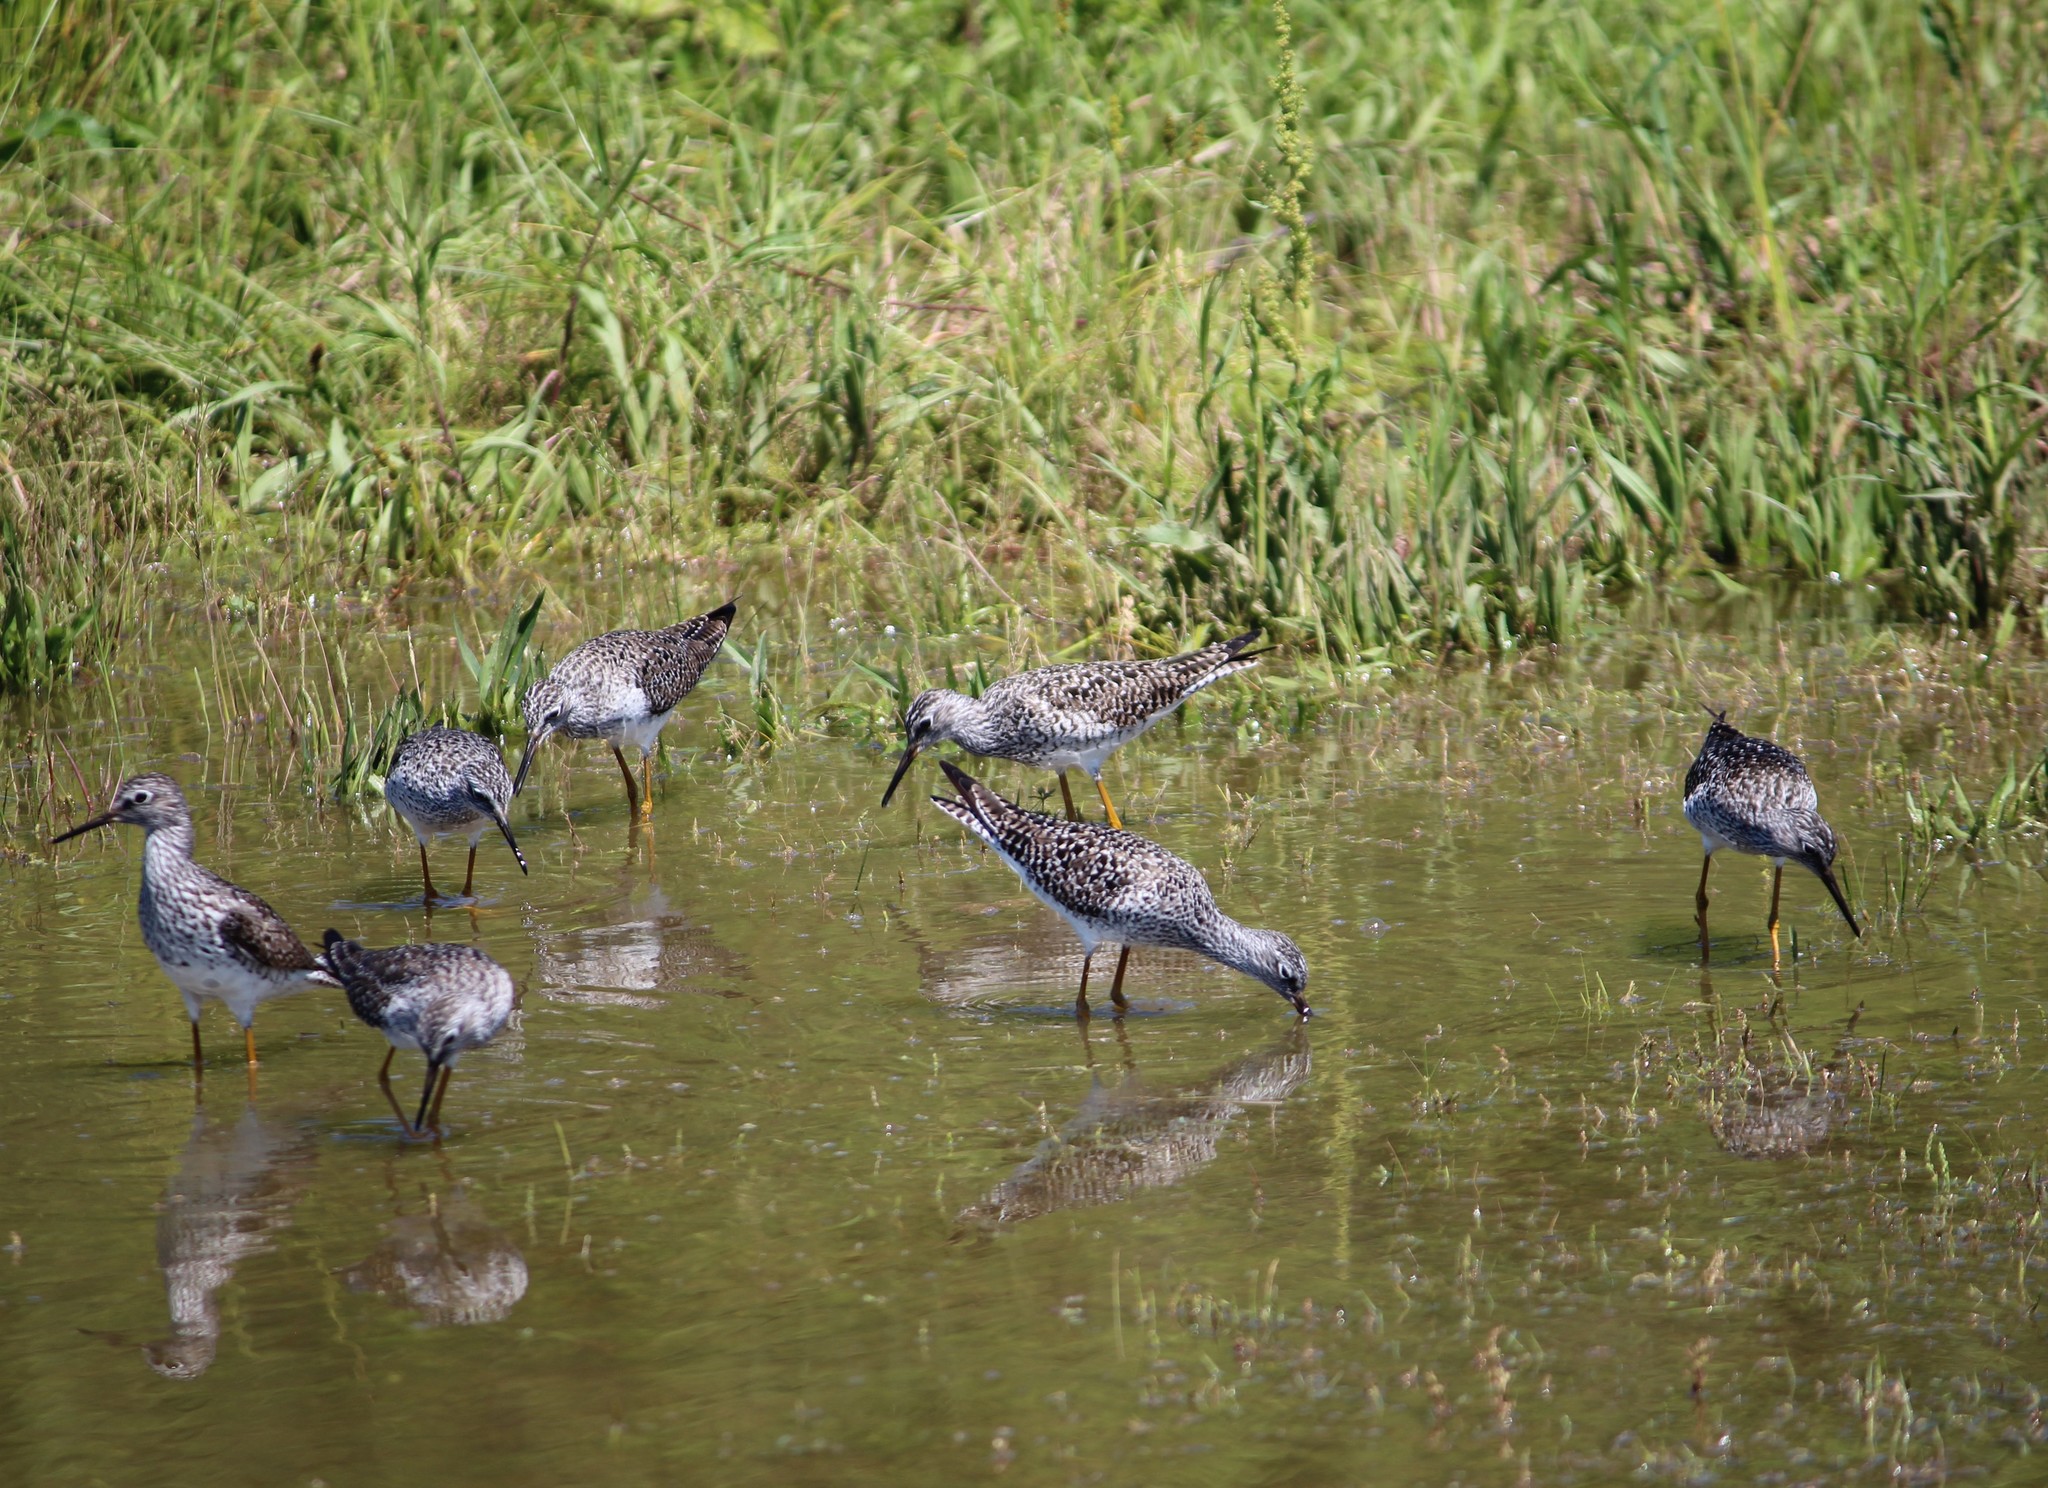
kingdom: Animalia
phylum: Chordata
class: Aves
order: Charadriiformes
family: Scolopacidae
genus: Tringa
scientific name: Tringa flavipes
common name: Lesser yellowlegs
